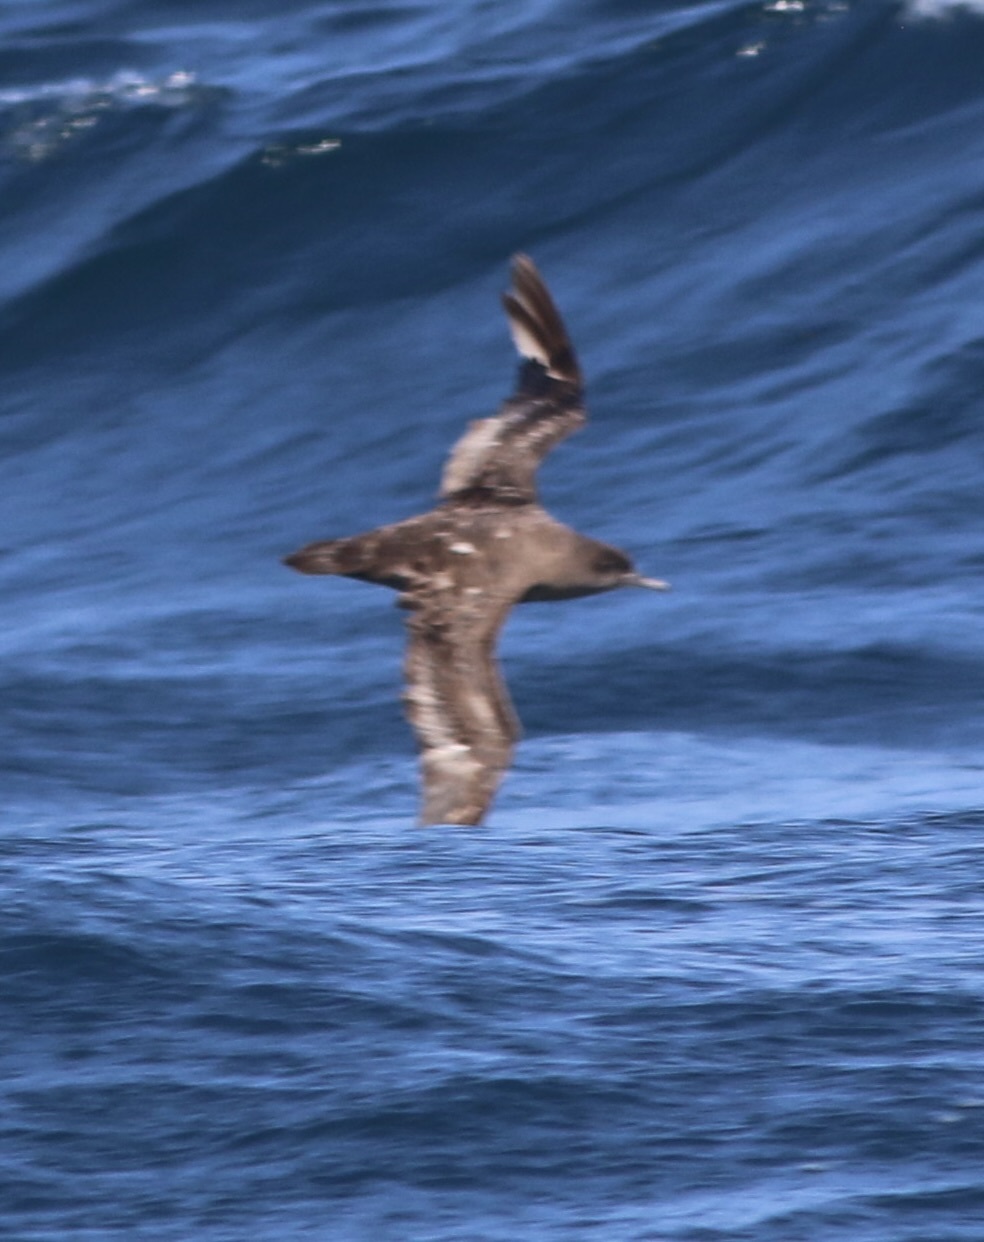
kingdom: Animalia
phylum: Chordata
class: Aves
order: Procellariiformes
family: Procellariidae
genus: Puffinus
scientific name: Puffinus griseus
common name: Sooty shearwater
